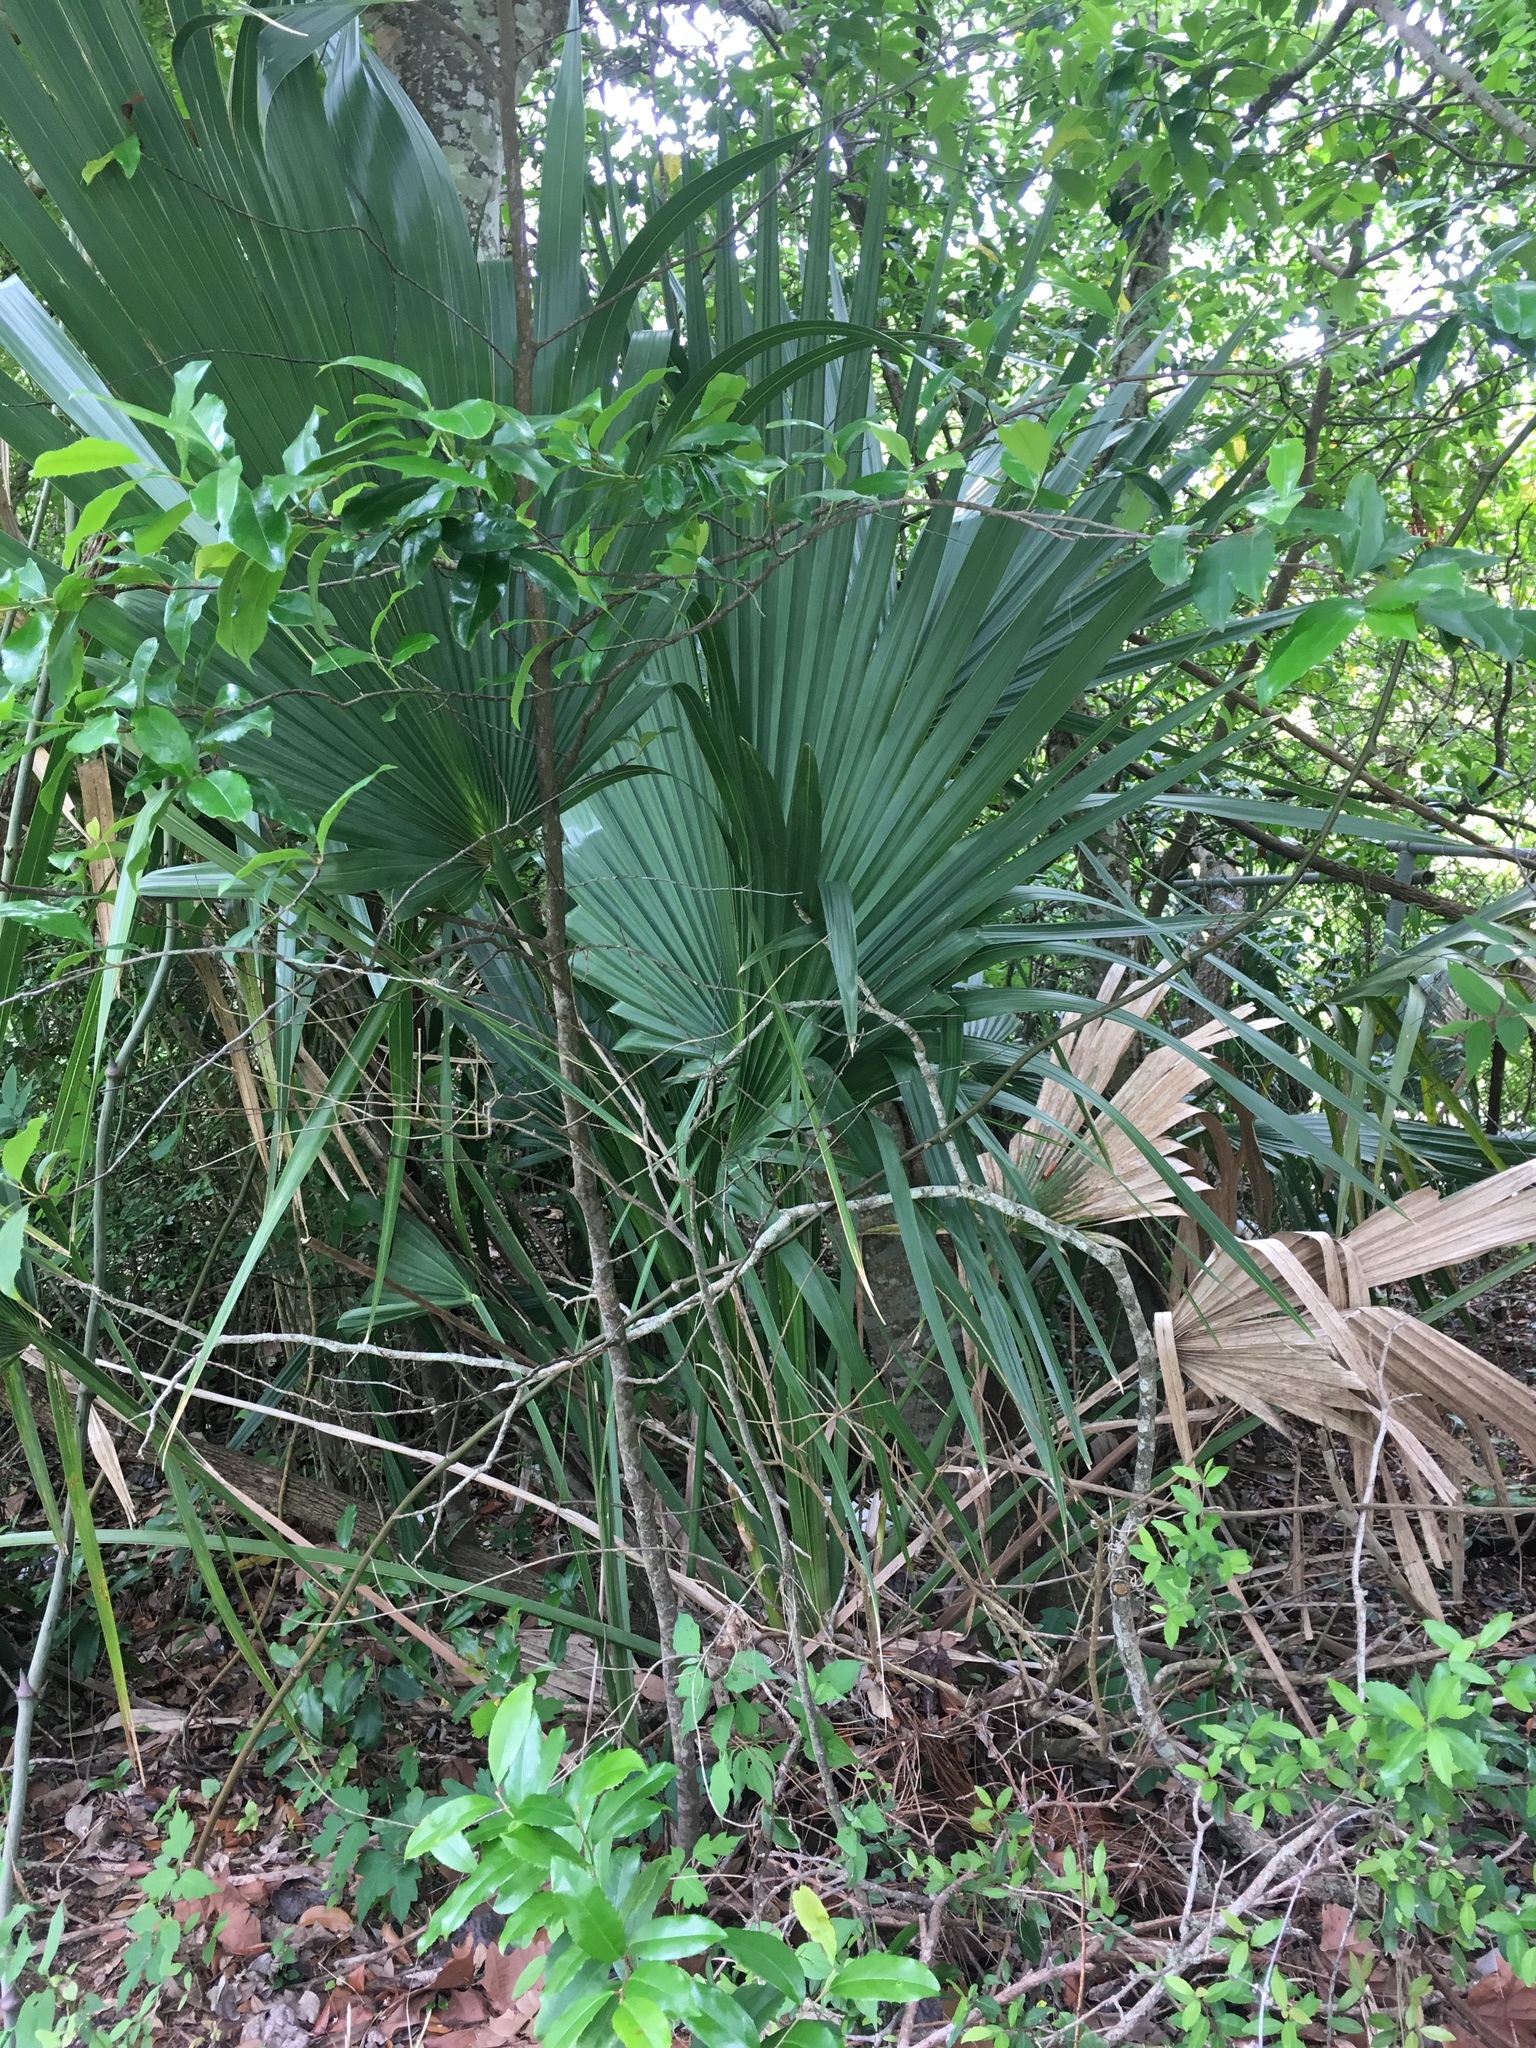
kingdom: Plantae
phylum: Tracheophyta
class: Liliopsida
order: Arecales
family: Arecaceae
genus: Sabal
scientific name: Sabal minor
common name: Dwarf palmetto
